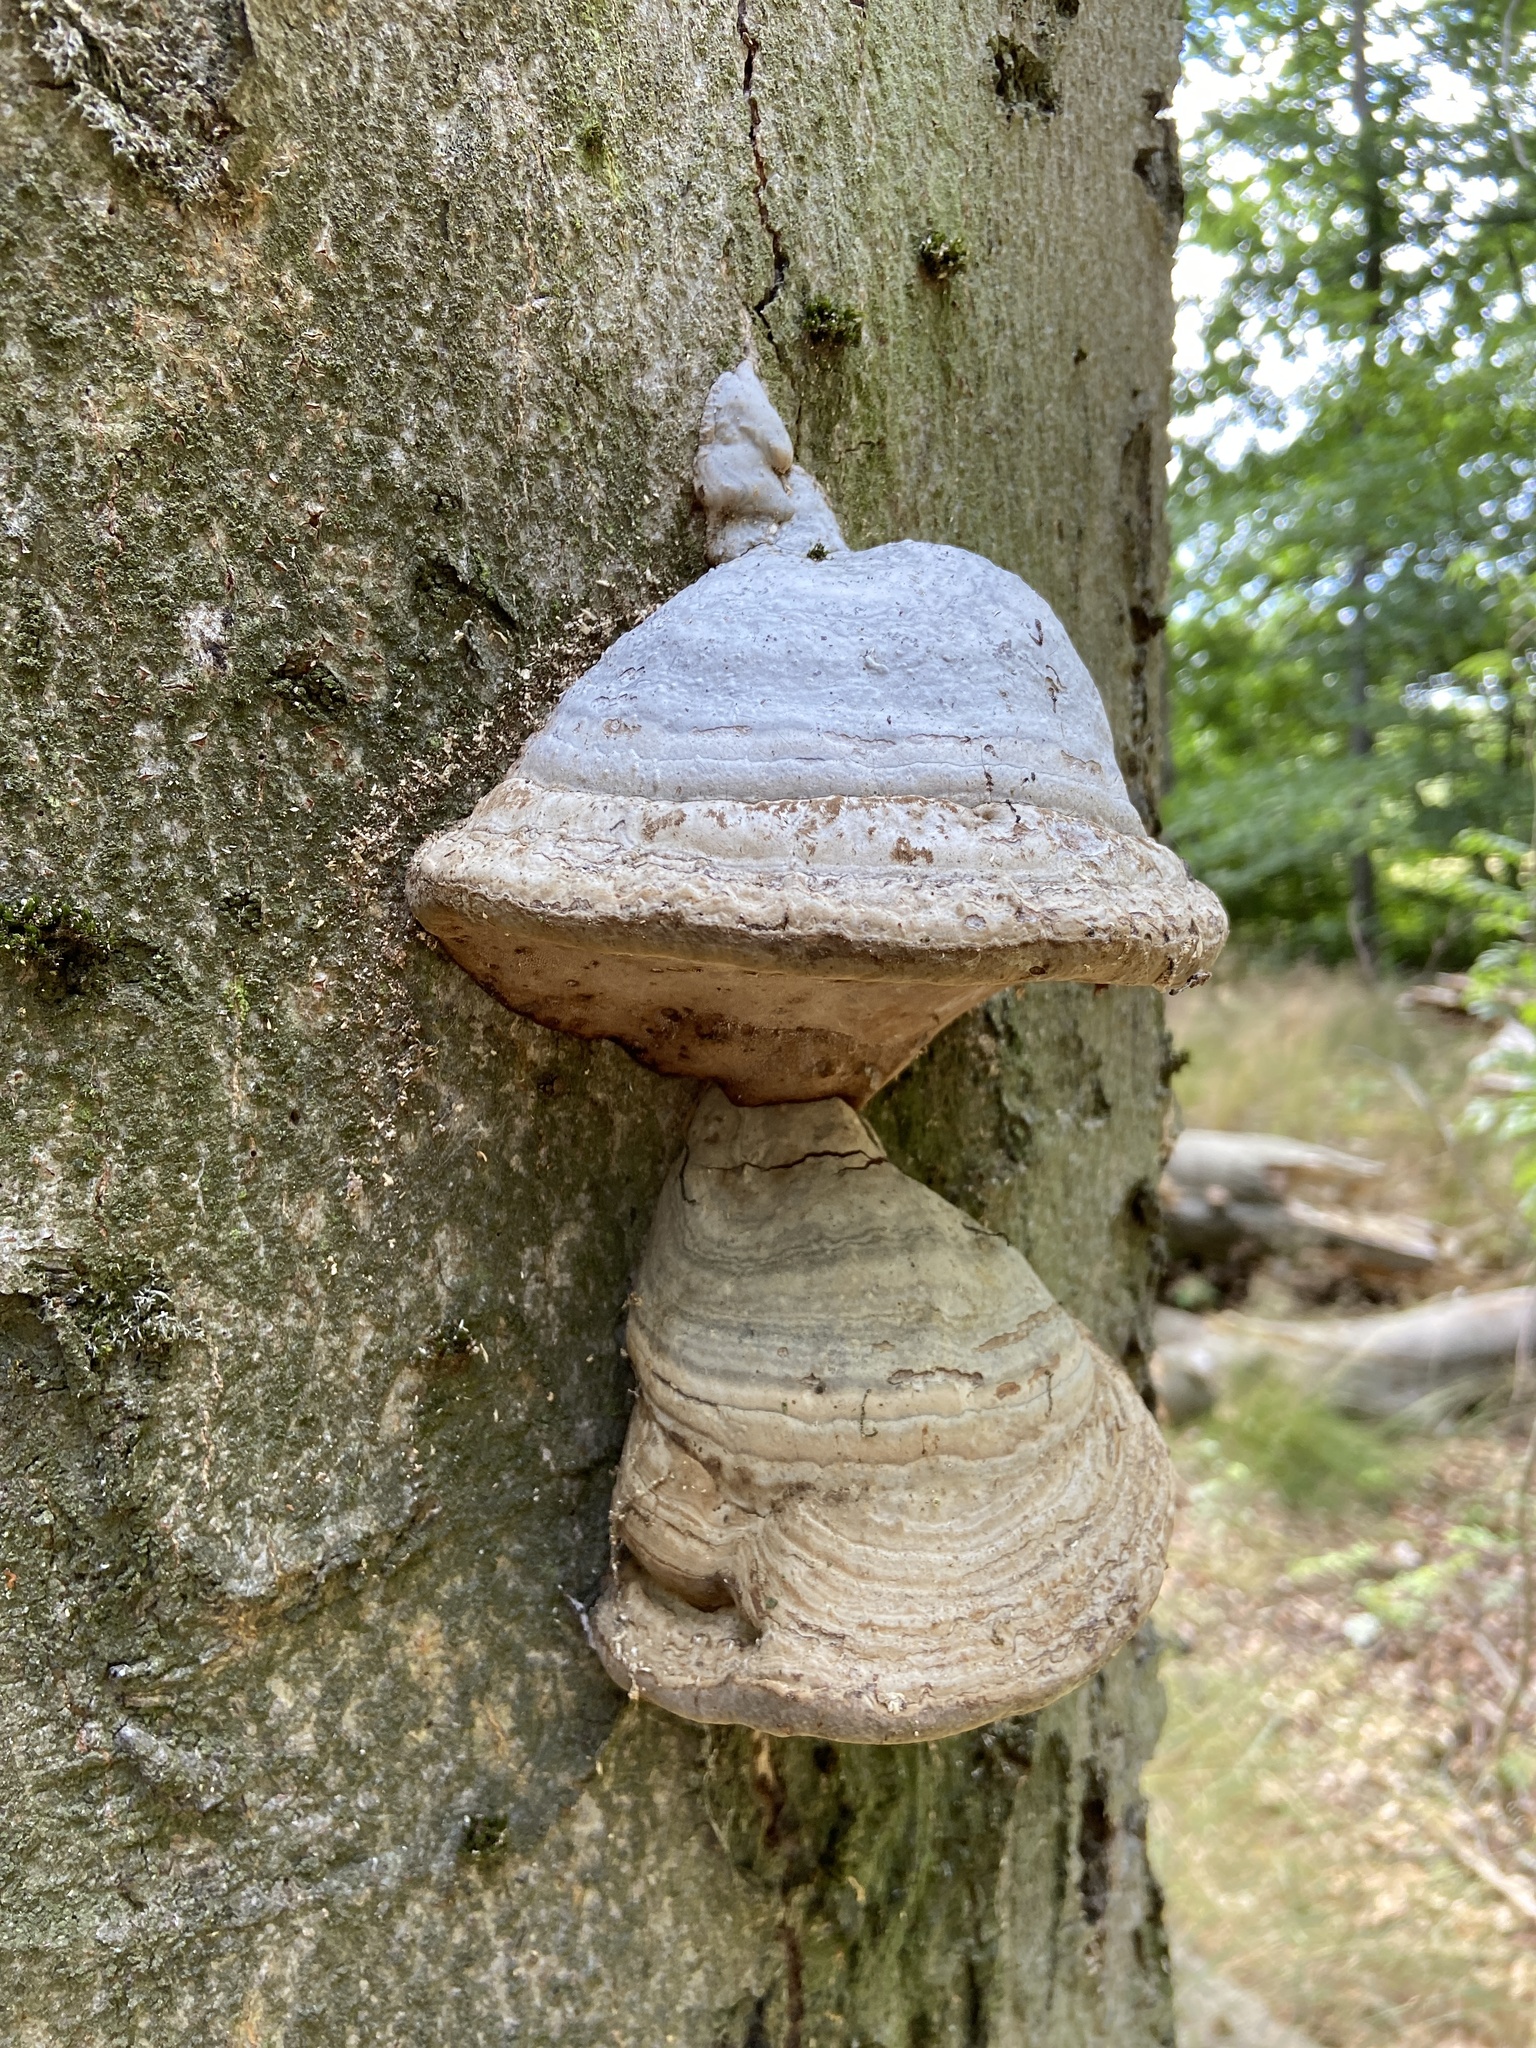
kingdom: Fungi
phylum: Basidiomycota
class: Agaricomycetes
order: Polyporales
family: Polyporaceae
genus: Fomes
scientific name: Fomes fomentarius
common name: Hoof fungus
